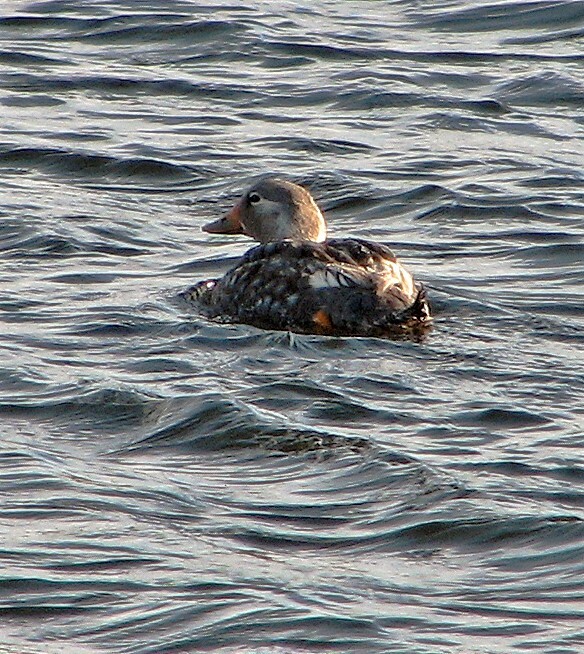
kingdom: Animalia
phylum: Chordata
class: Aves
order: Anseriformes
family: Anatidae
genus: Tachyeres
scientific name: Tachyeres patachonicus
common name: Flying steamer duck
